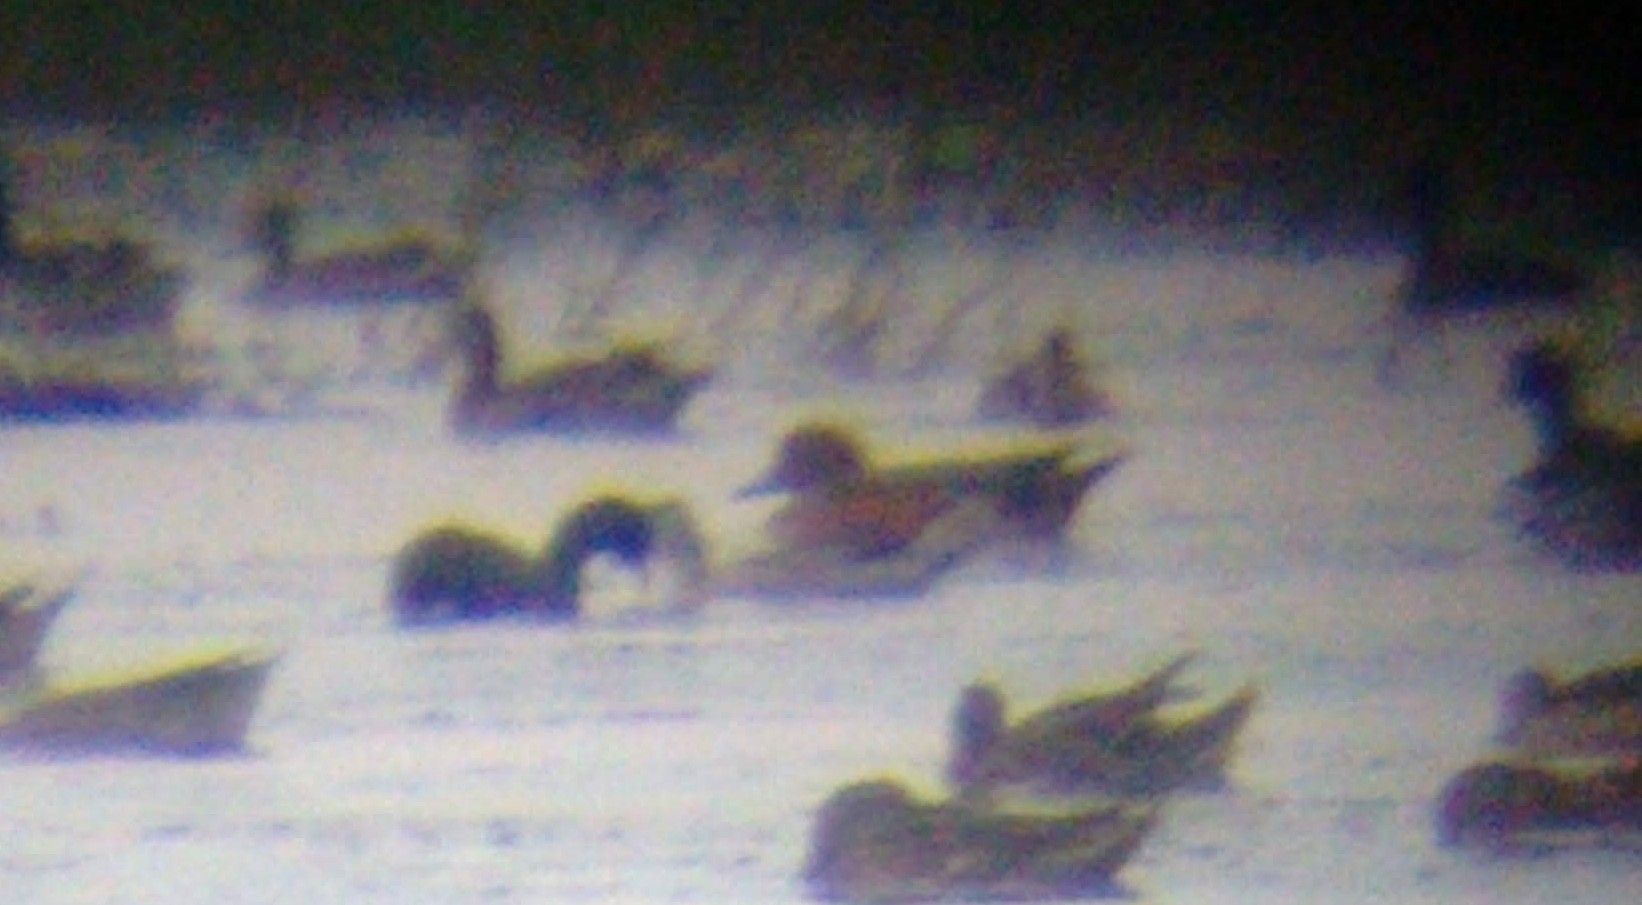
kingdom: Animalia
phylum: Chordata
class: Aves
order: Anseriformes
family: Anatidae
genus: Mareca
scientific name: Mareca penelope
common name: Eurasian wigeon
